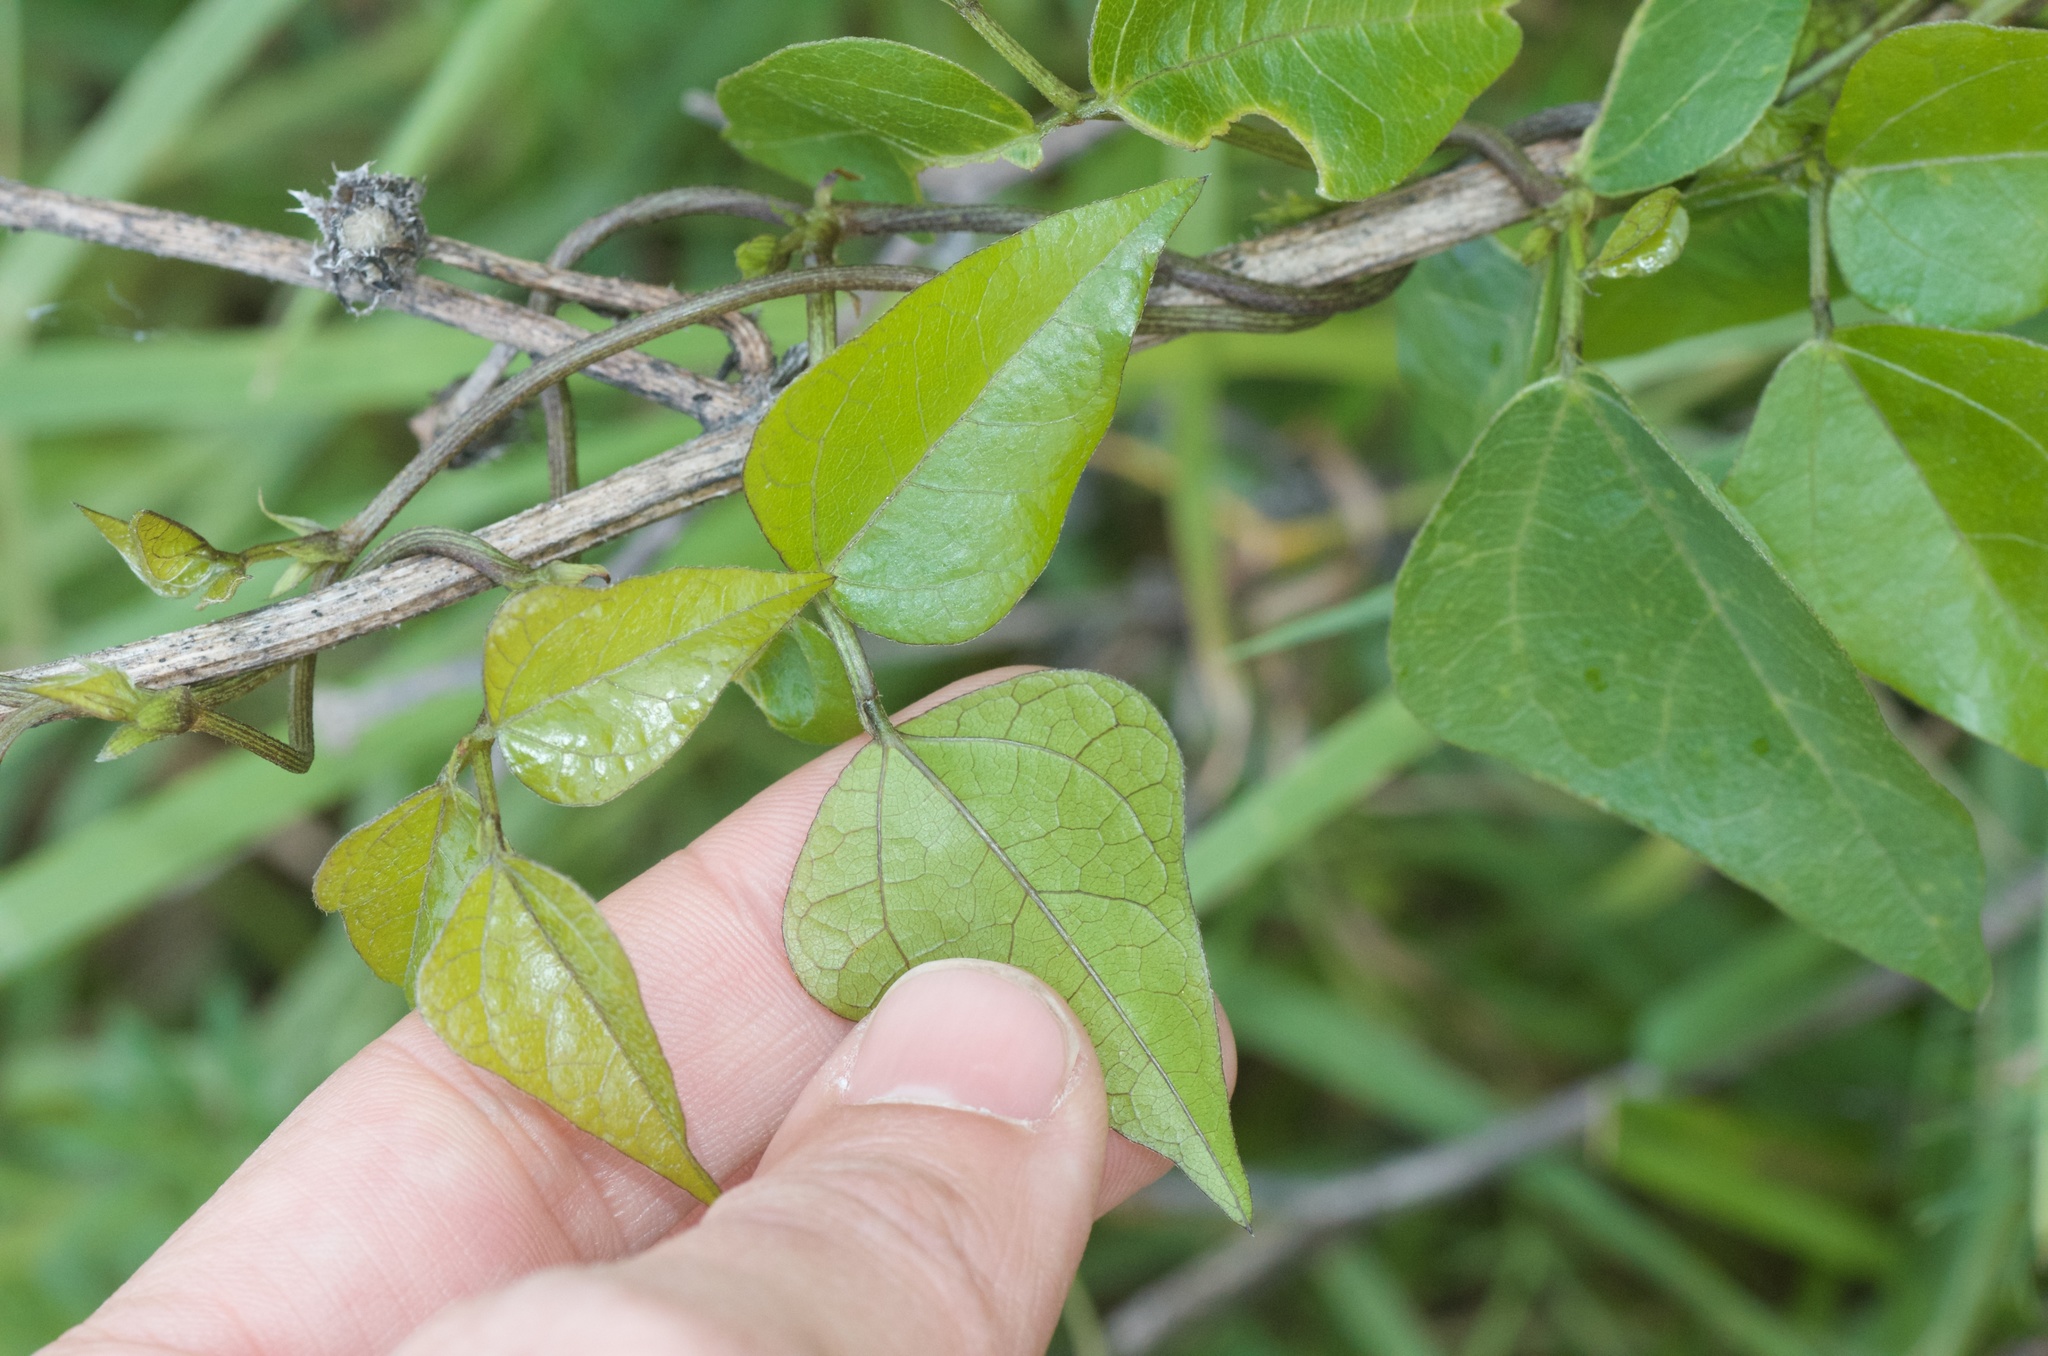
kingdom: Plantae
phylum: Tracheophyta
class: Magnoliopsida
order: Fabales
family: Fabaceae
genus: Dipogon
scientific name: Dipogon lignosus
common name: Okie bean
